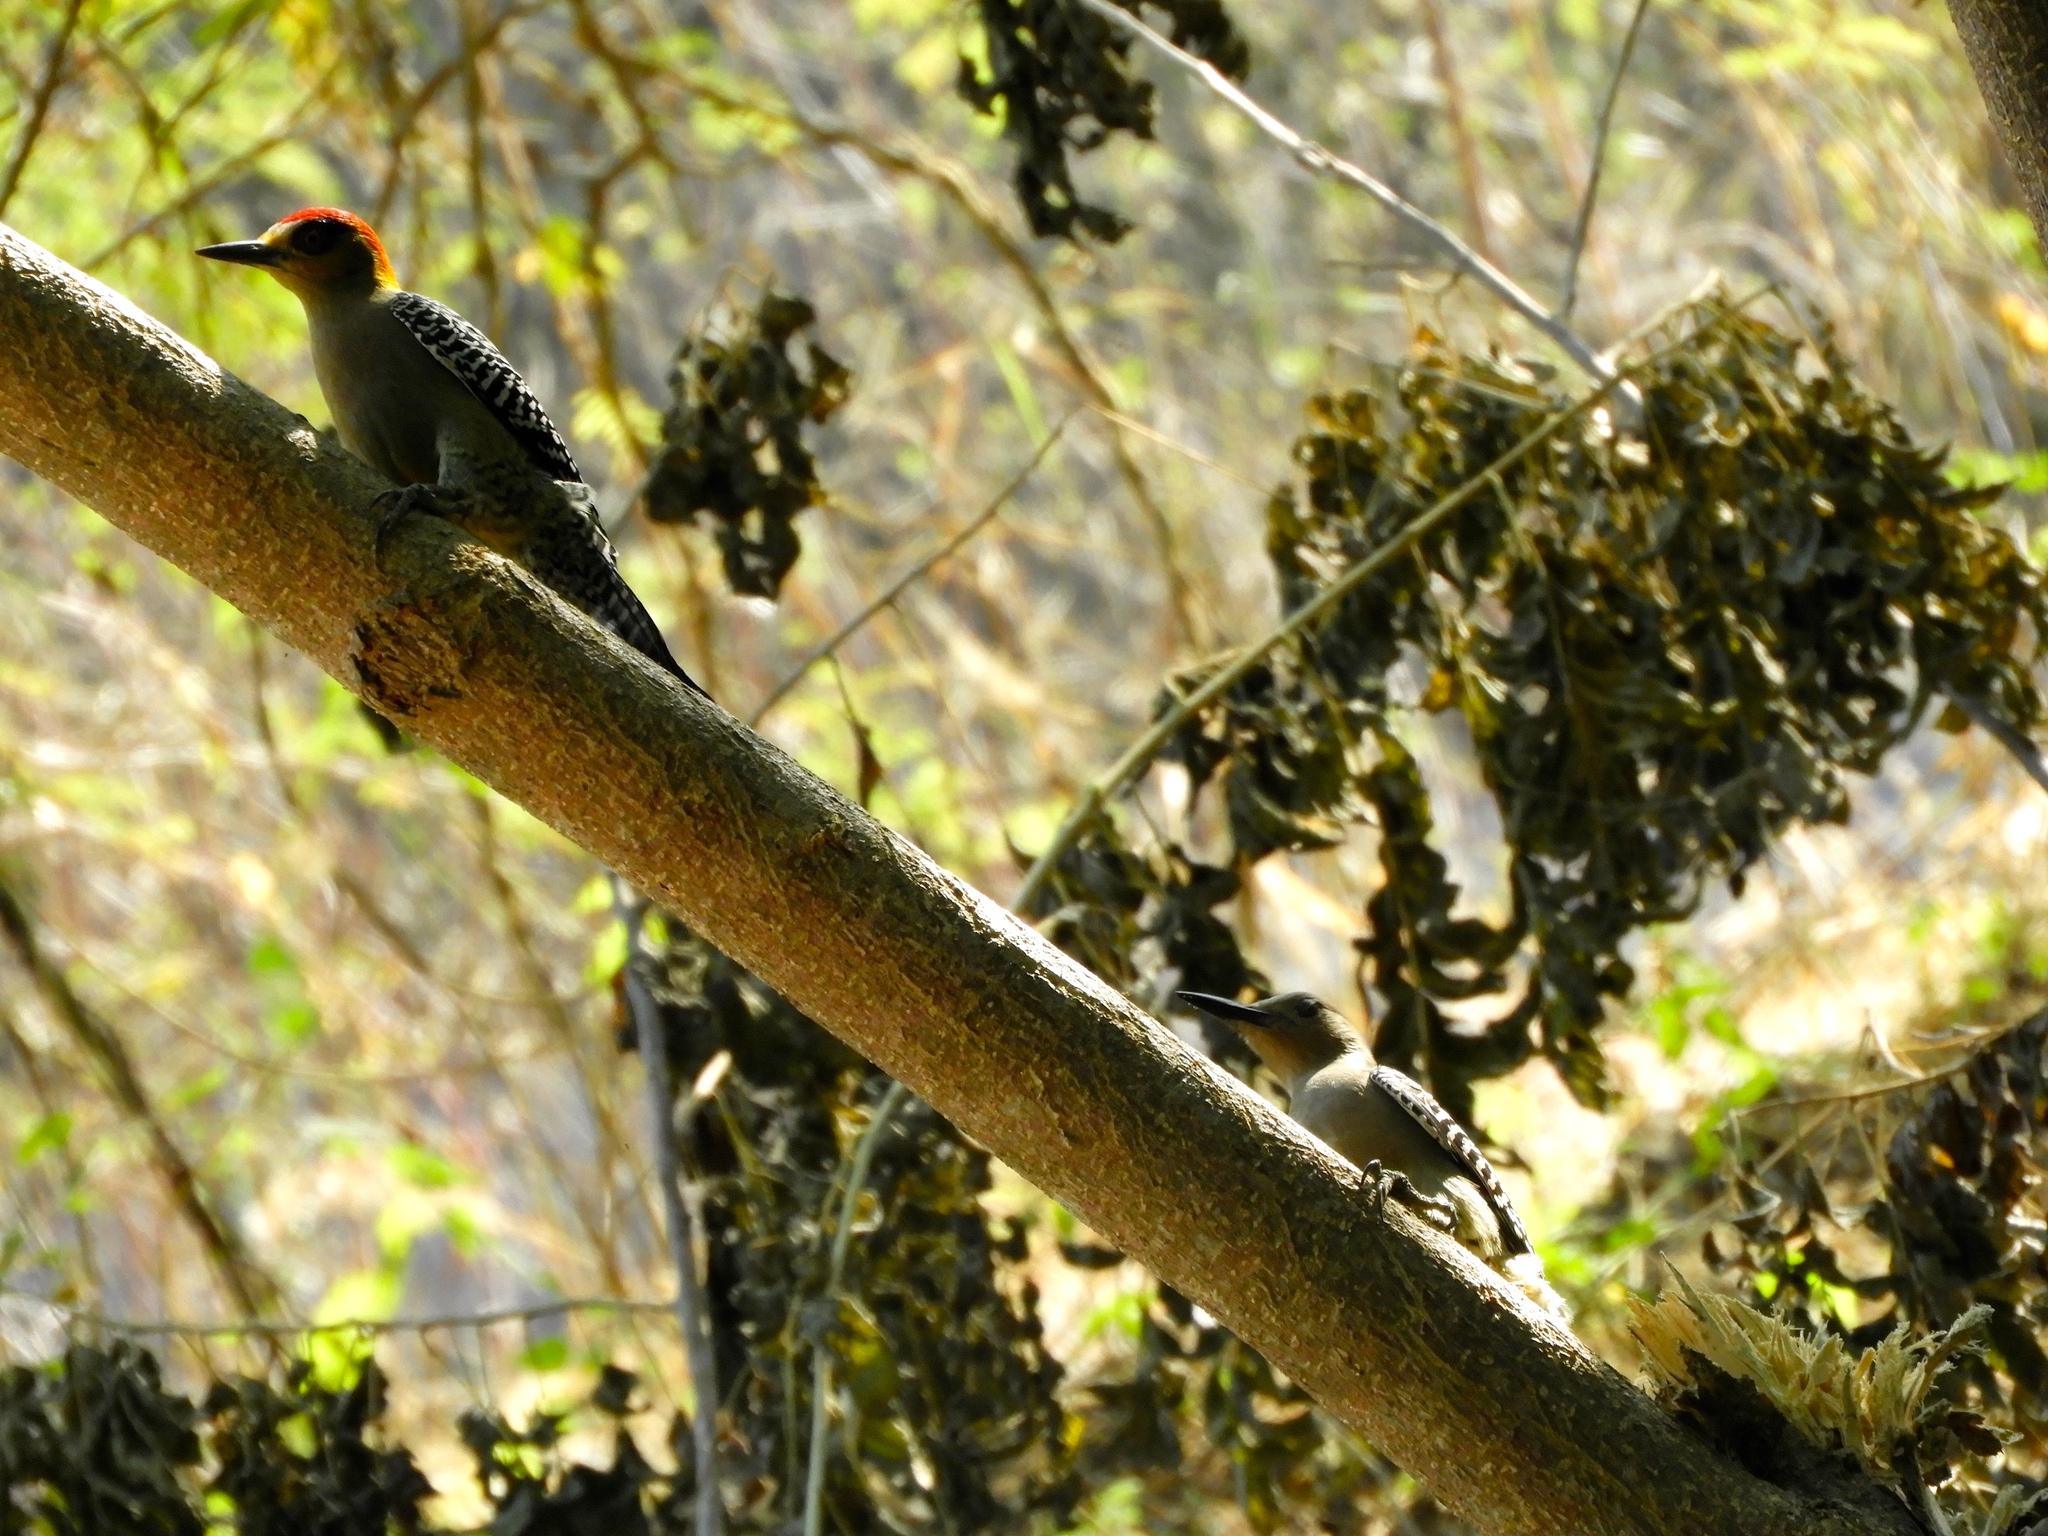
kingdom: Animalia
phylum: Chordata
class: Aves
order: Piciformes
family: Picidae
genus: Melanerpes
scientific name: Melanerpes uropygialis
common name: Gila woodpecker
